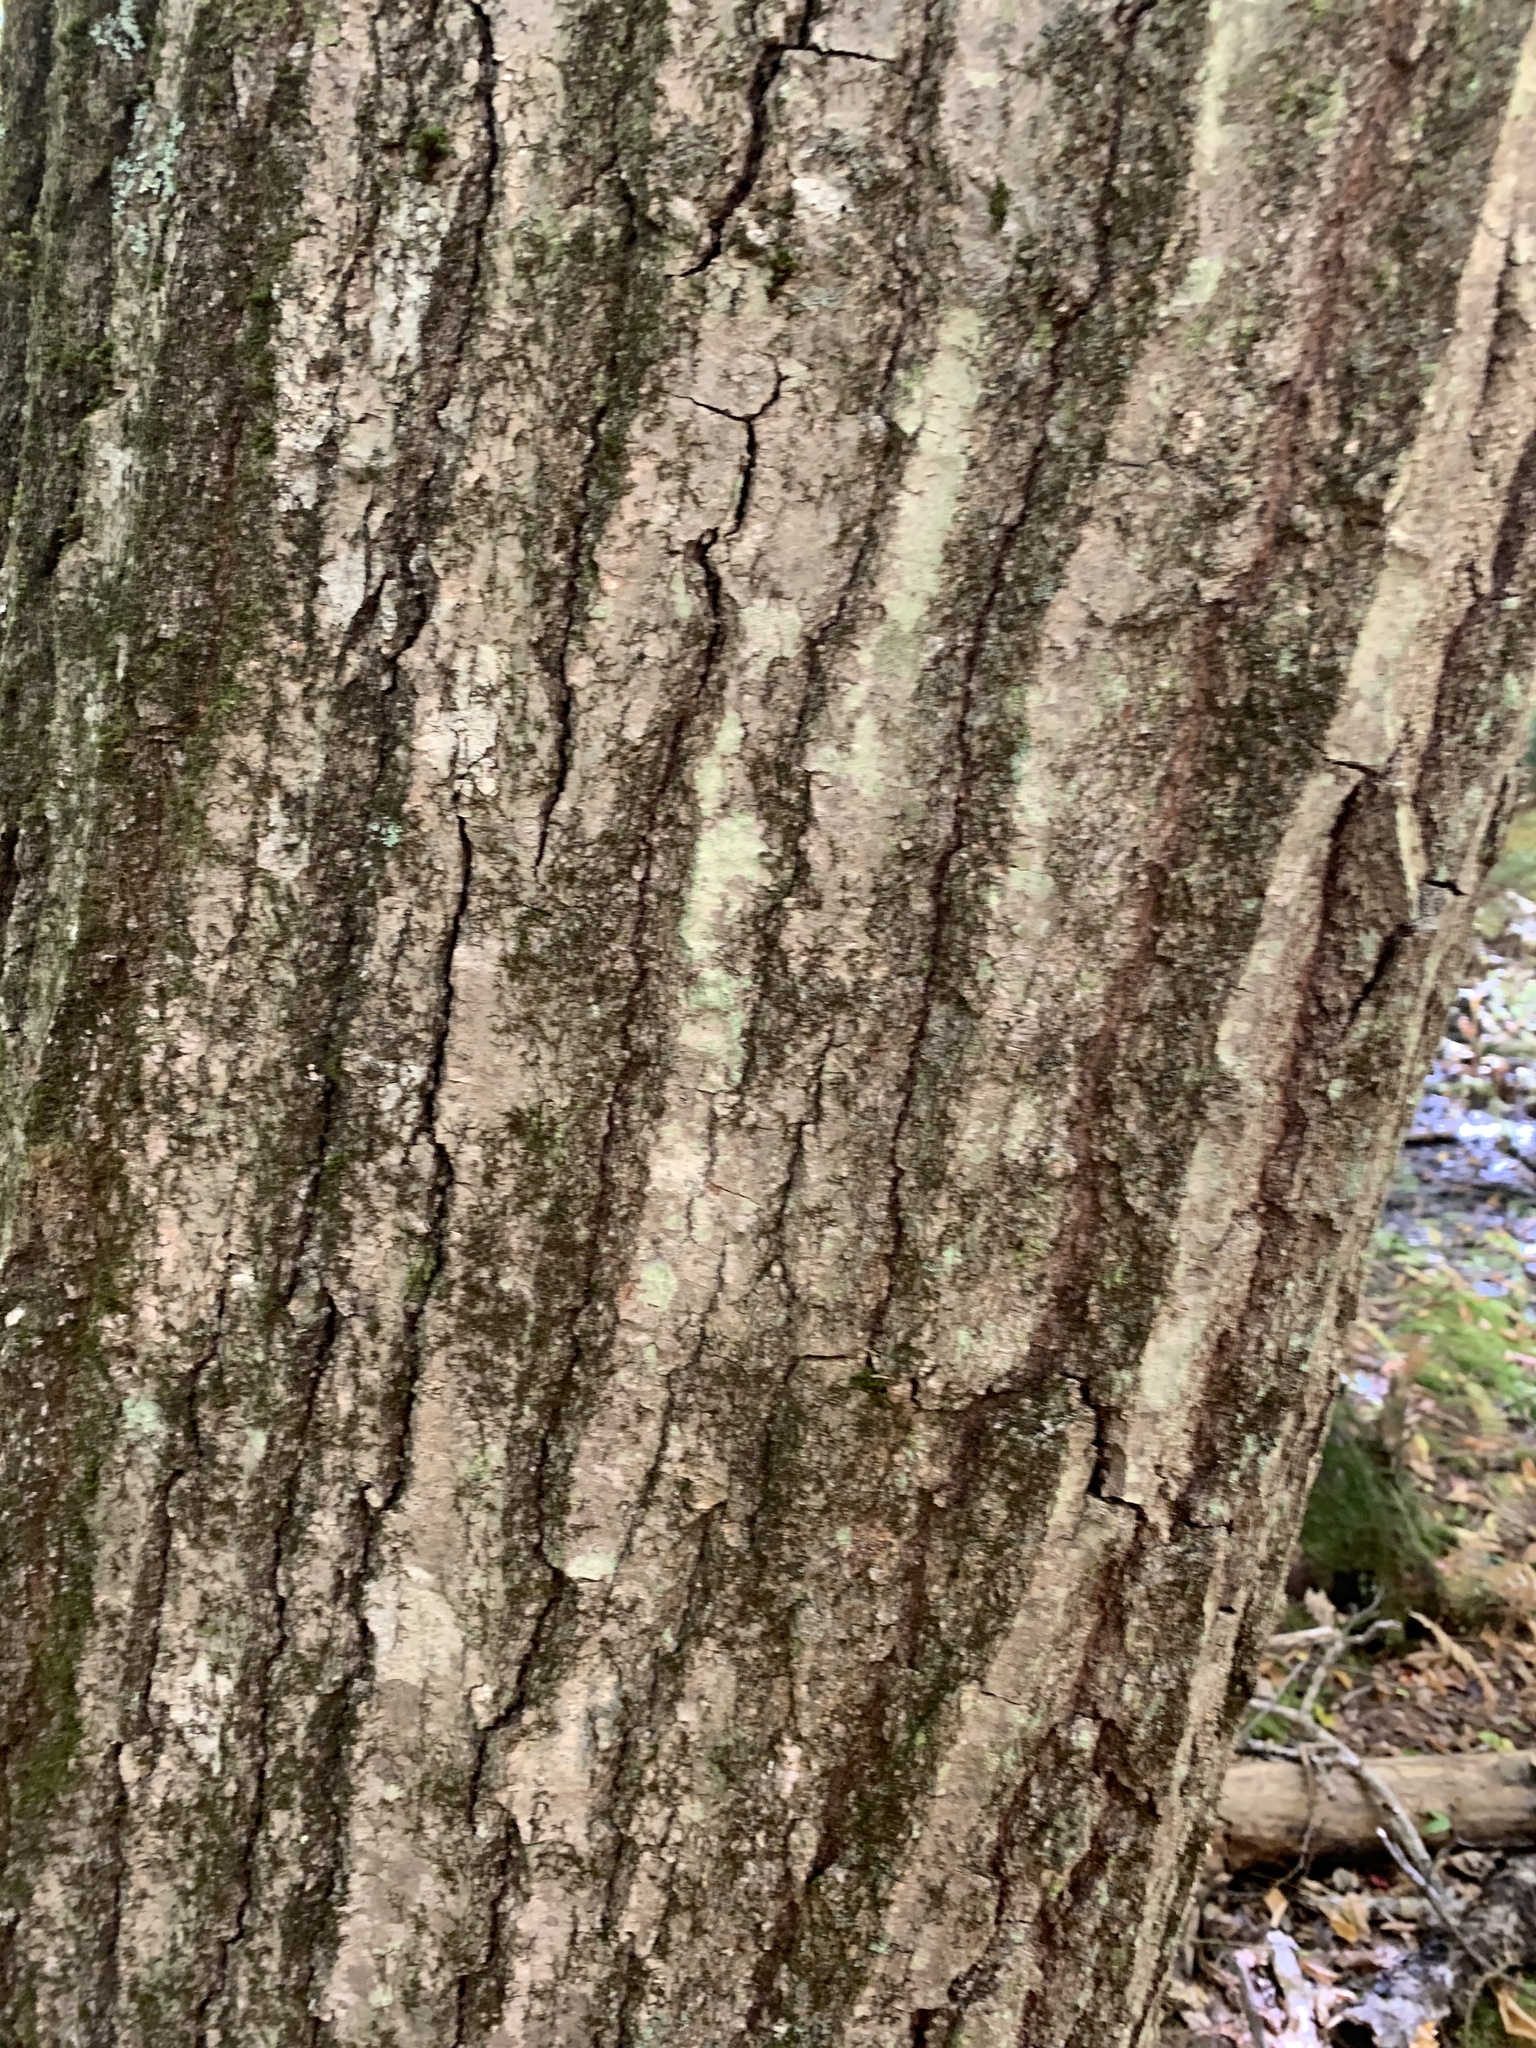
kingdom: Plantae
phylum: Tracheophyta
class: Magnoliopsida
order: Fagales
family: Fagaceae
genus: Quercus
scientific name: Quercus rubra
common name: Red oak
